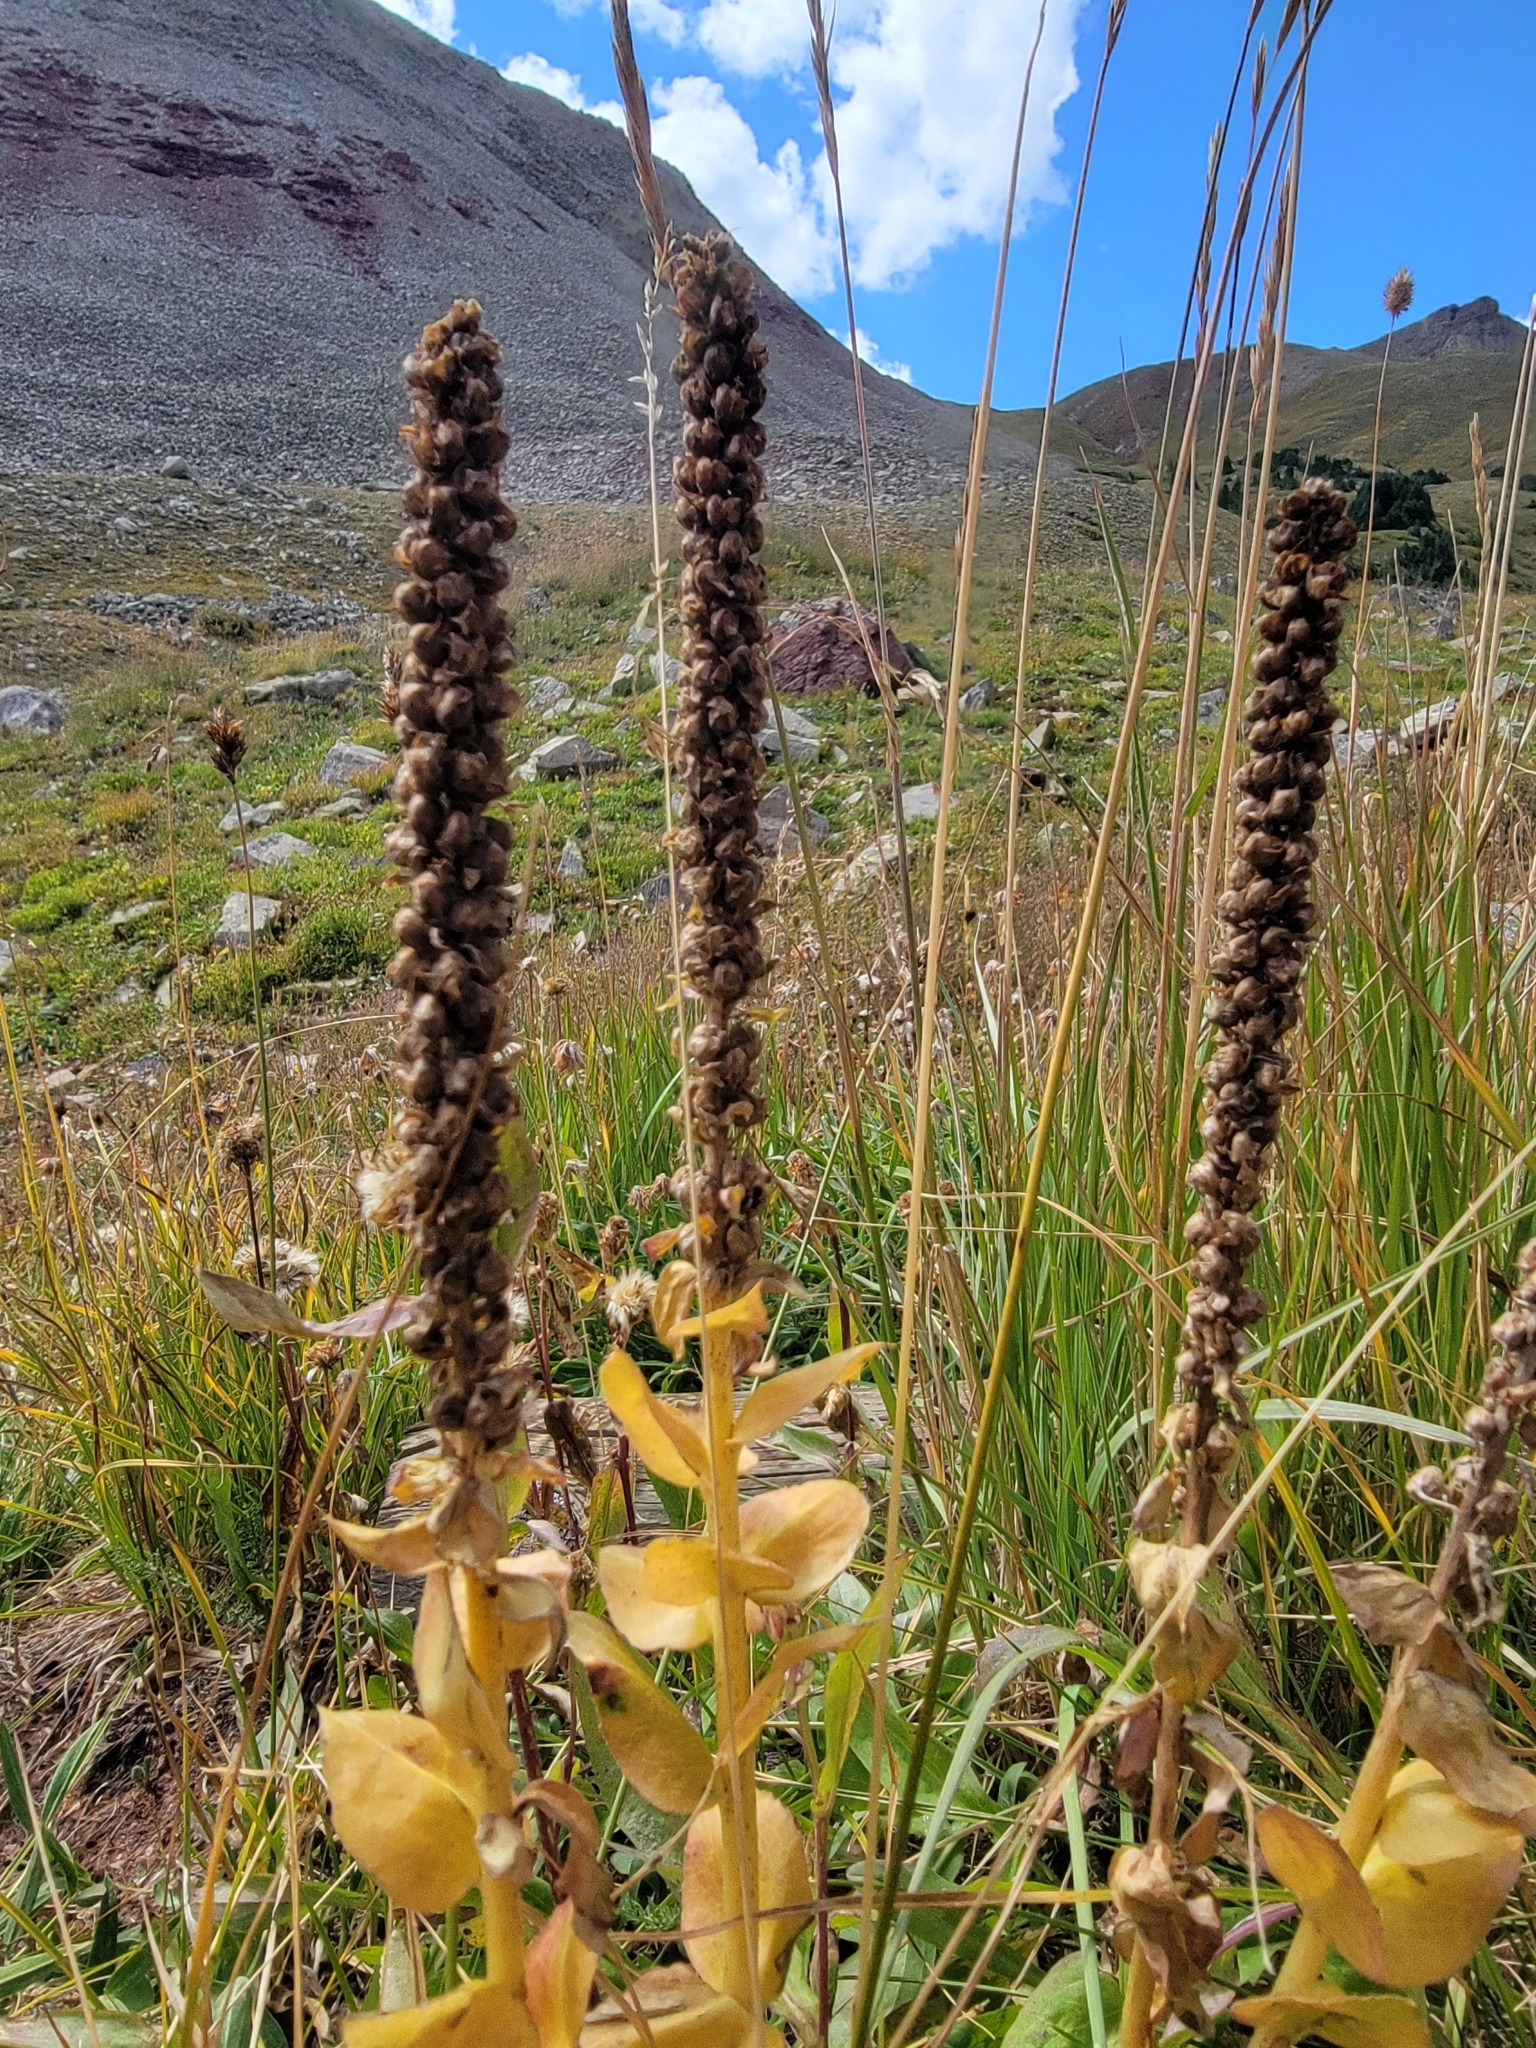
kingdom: Plantae
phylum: Tracheophyta
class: Magnoliopsida
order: Lamiales
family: Scrophulariaceae
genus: Verbascum
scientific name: Verbascum thapsus
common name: Common mullein
